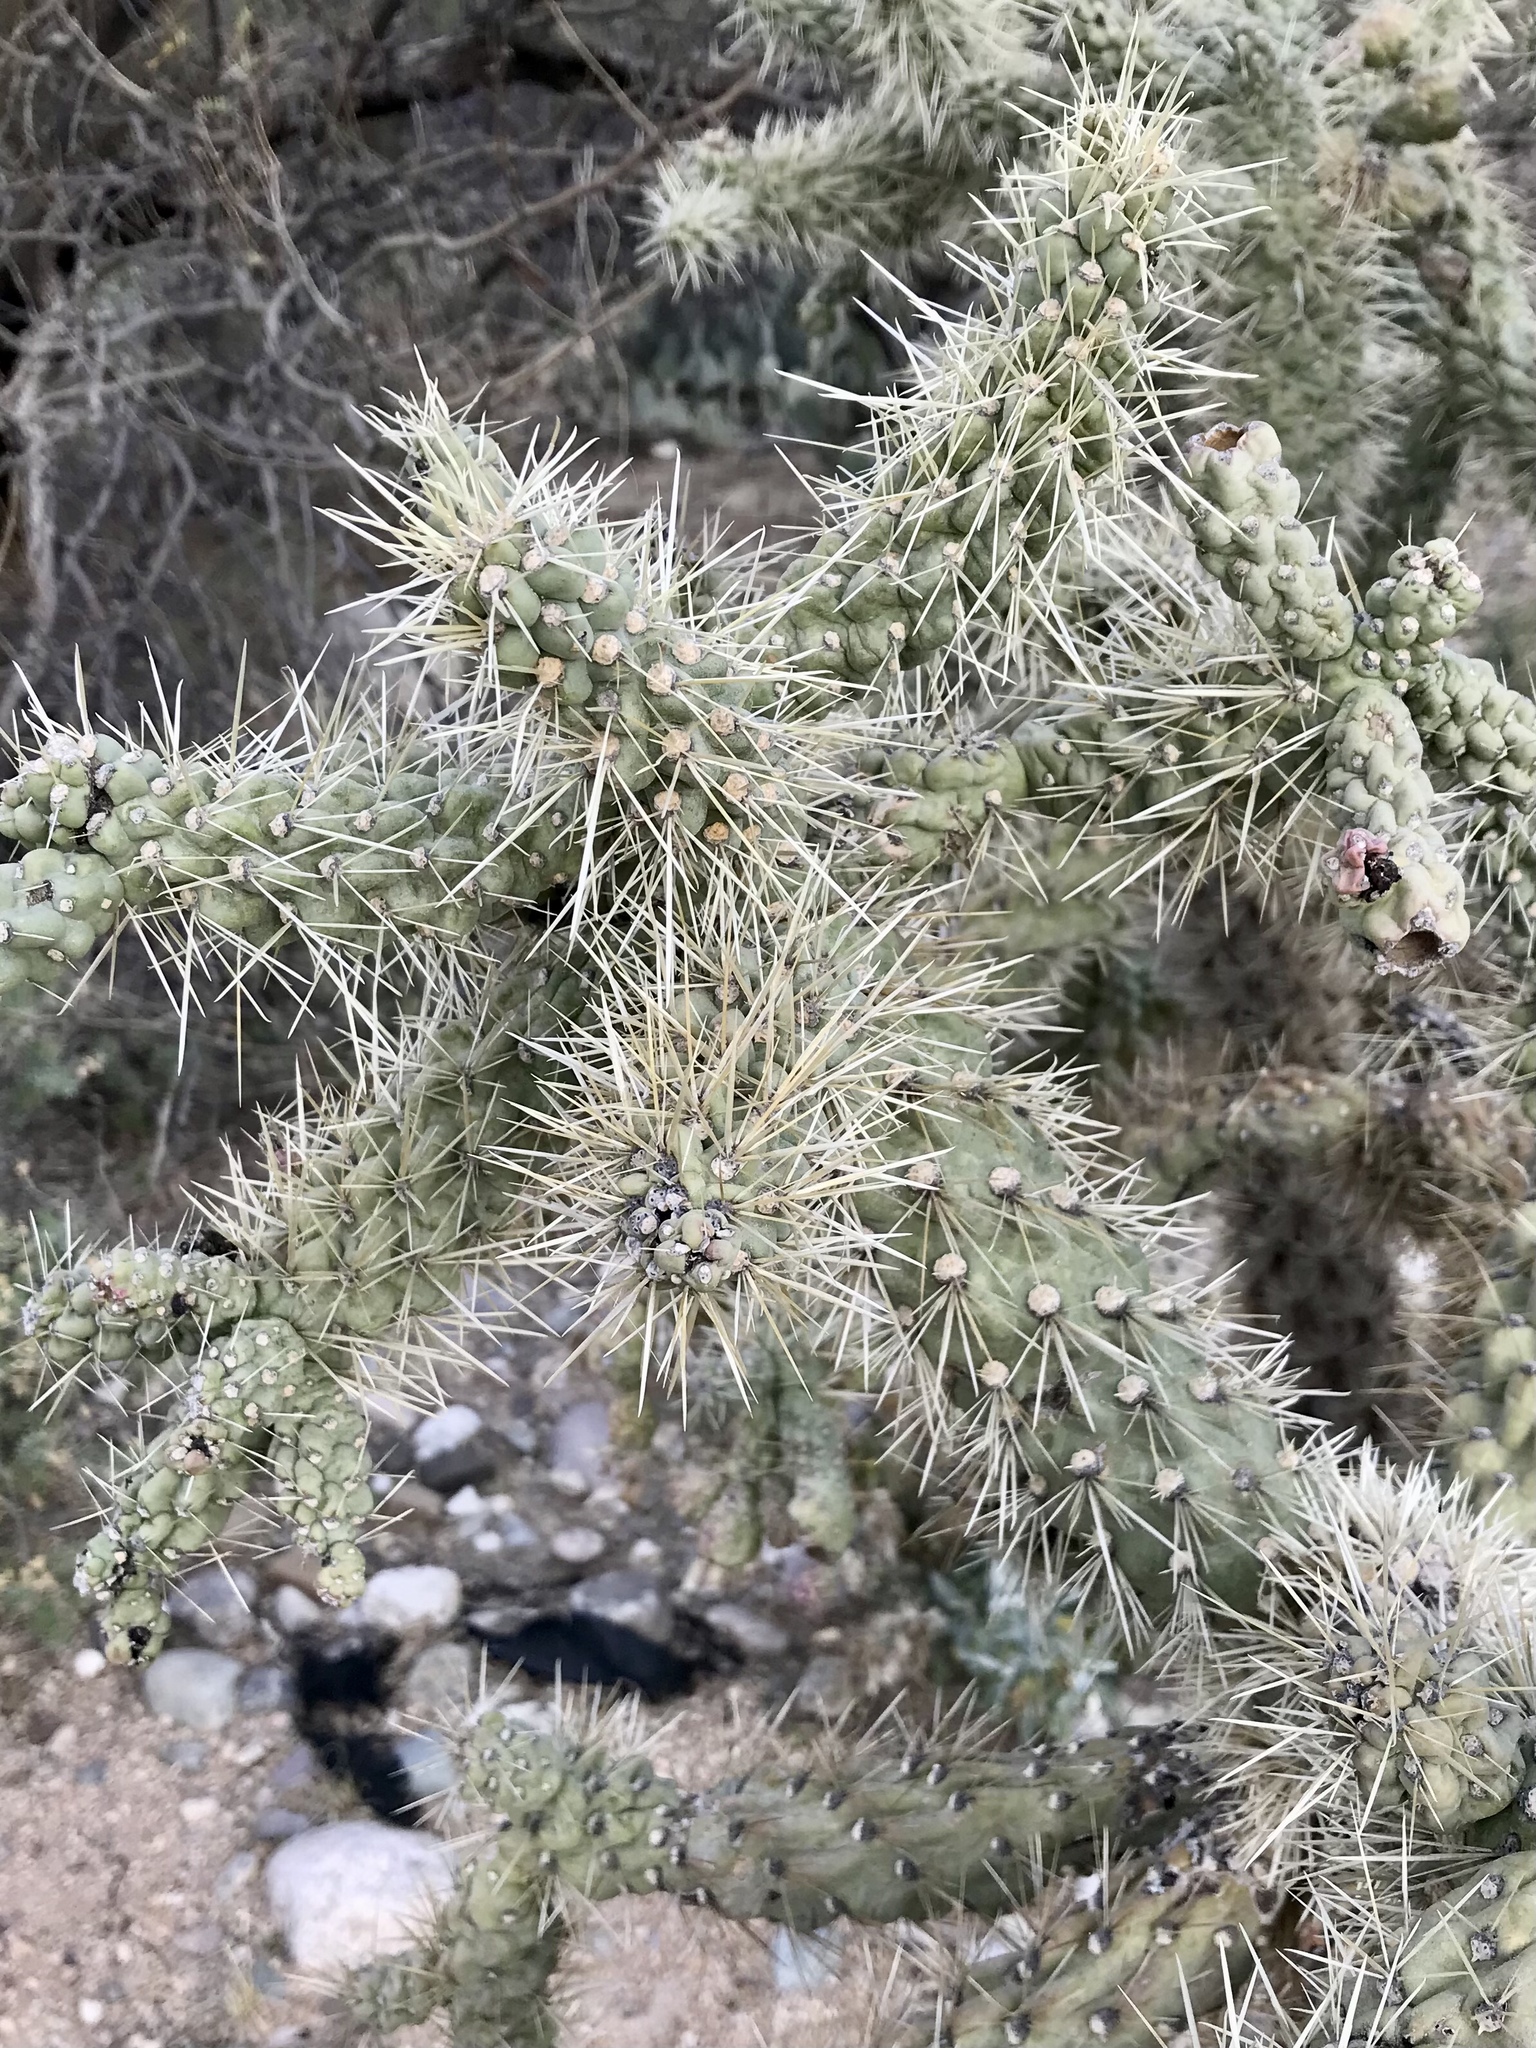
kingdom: Plantae
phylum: Tracheophyta
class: Magnoliopsida
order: Caryophyllales
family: Cactaceae
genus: Cylindropuntia
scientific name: Cylindropuntia fulgida
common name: Jumping cholla
